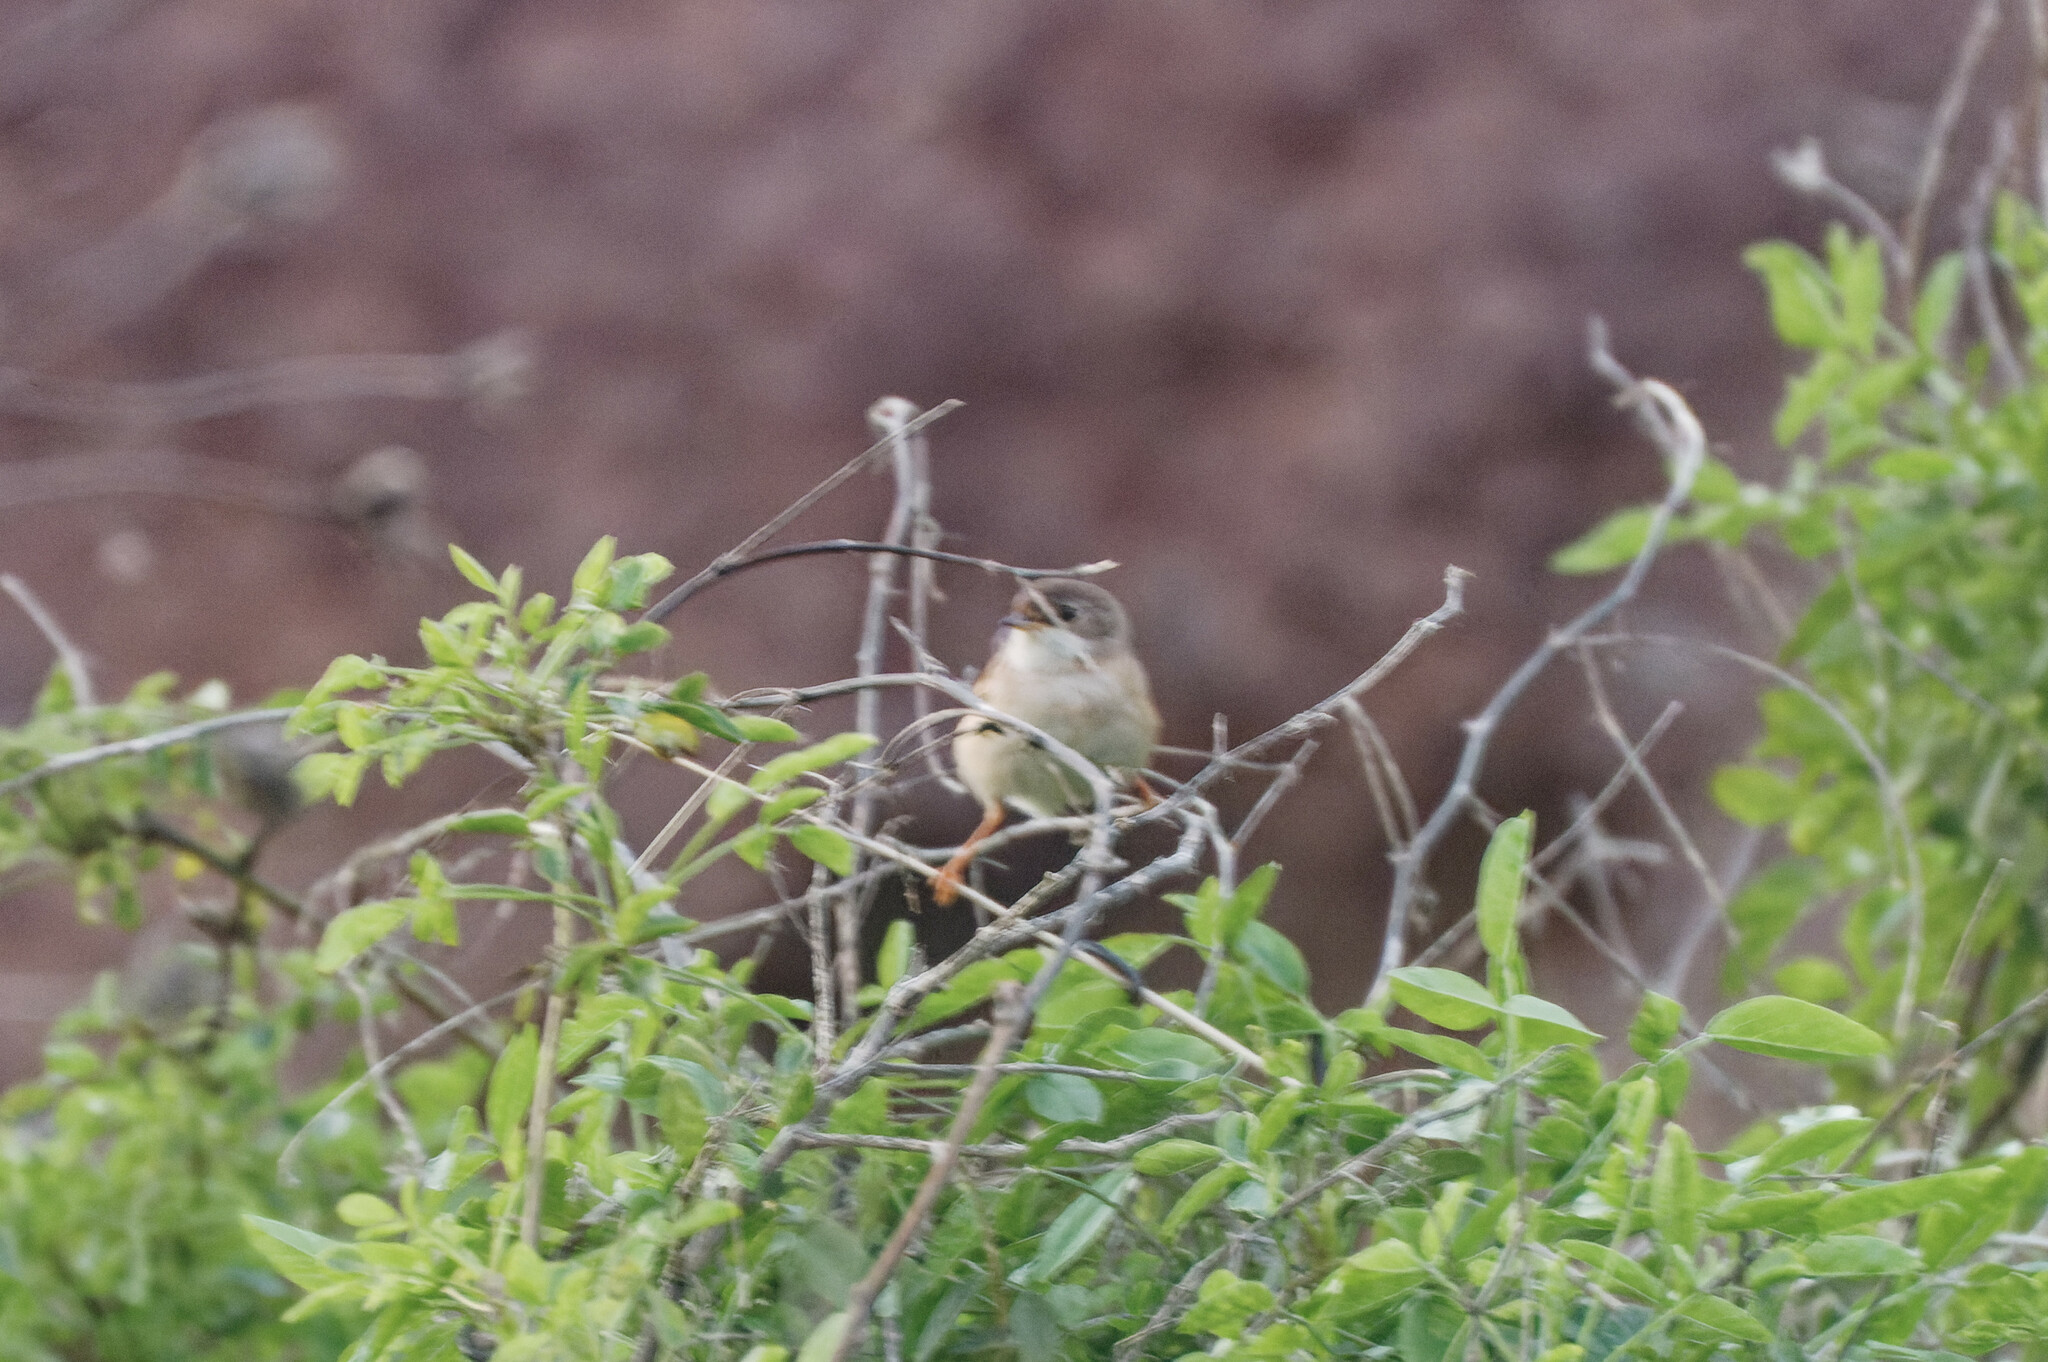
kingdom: Animalia
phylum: Chordata
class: Aves
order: Passeriformes
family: Sylviidae
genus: Sylvia
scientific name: Sylvia conspicillata
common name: Spectacled warbler
